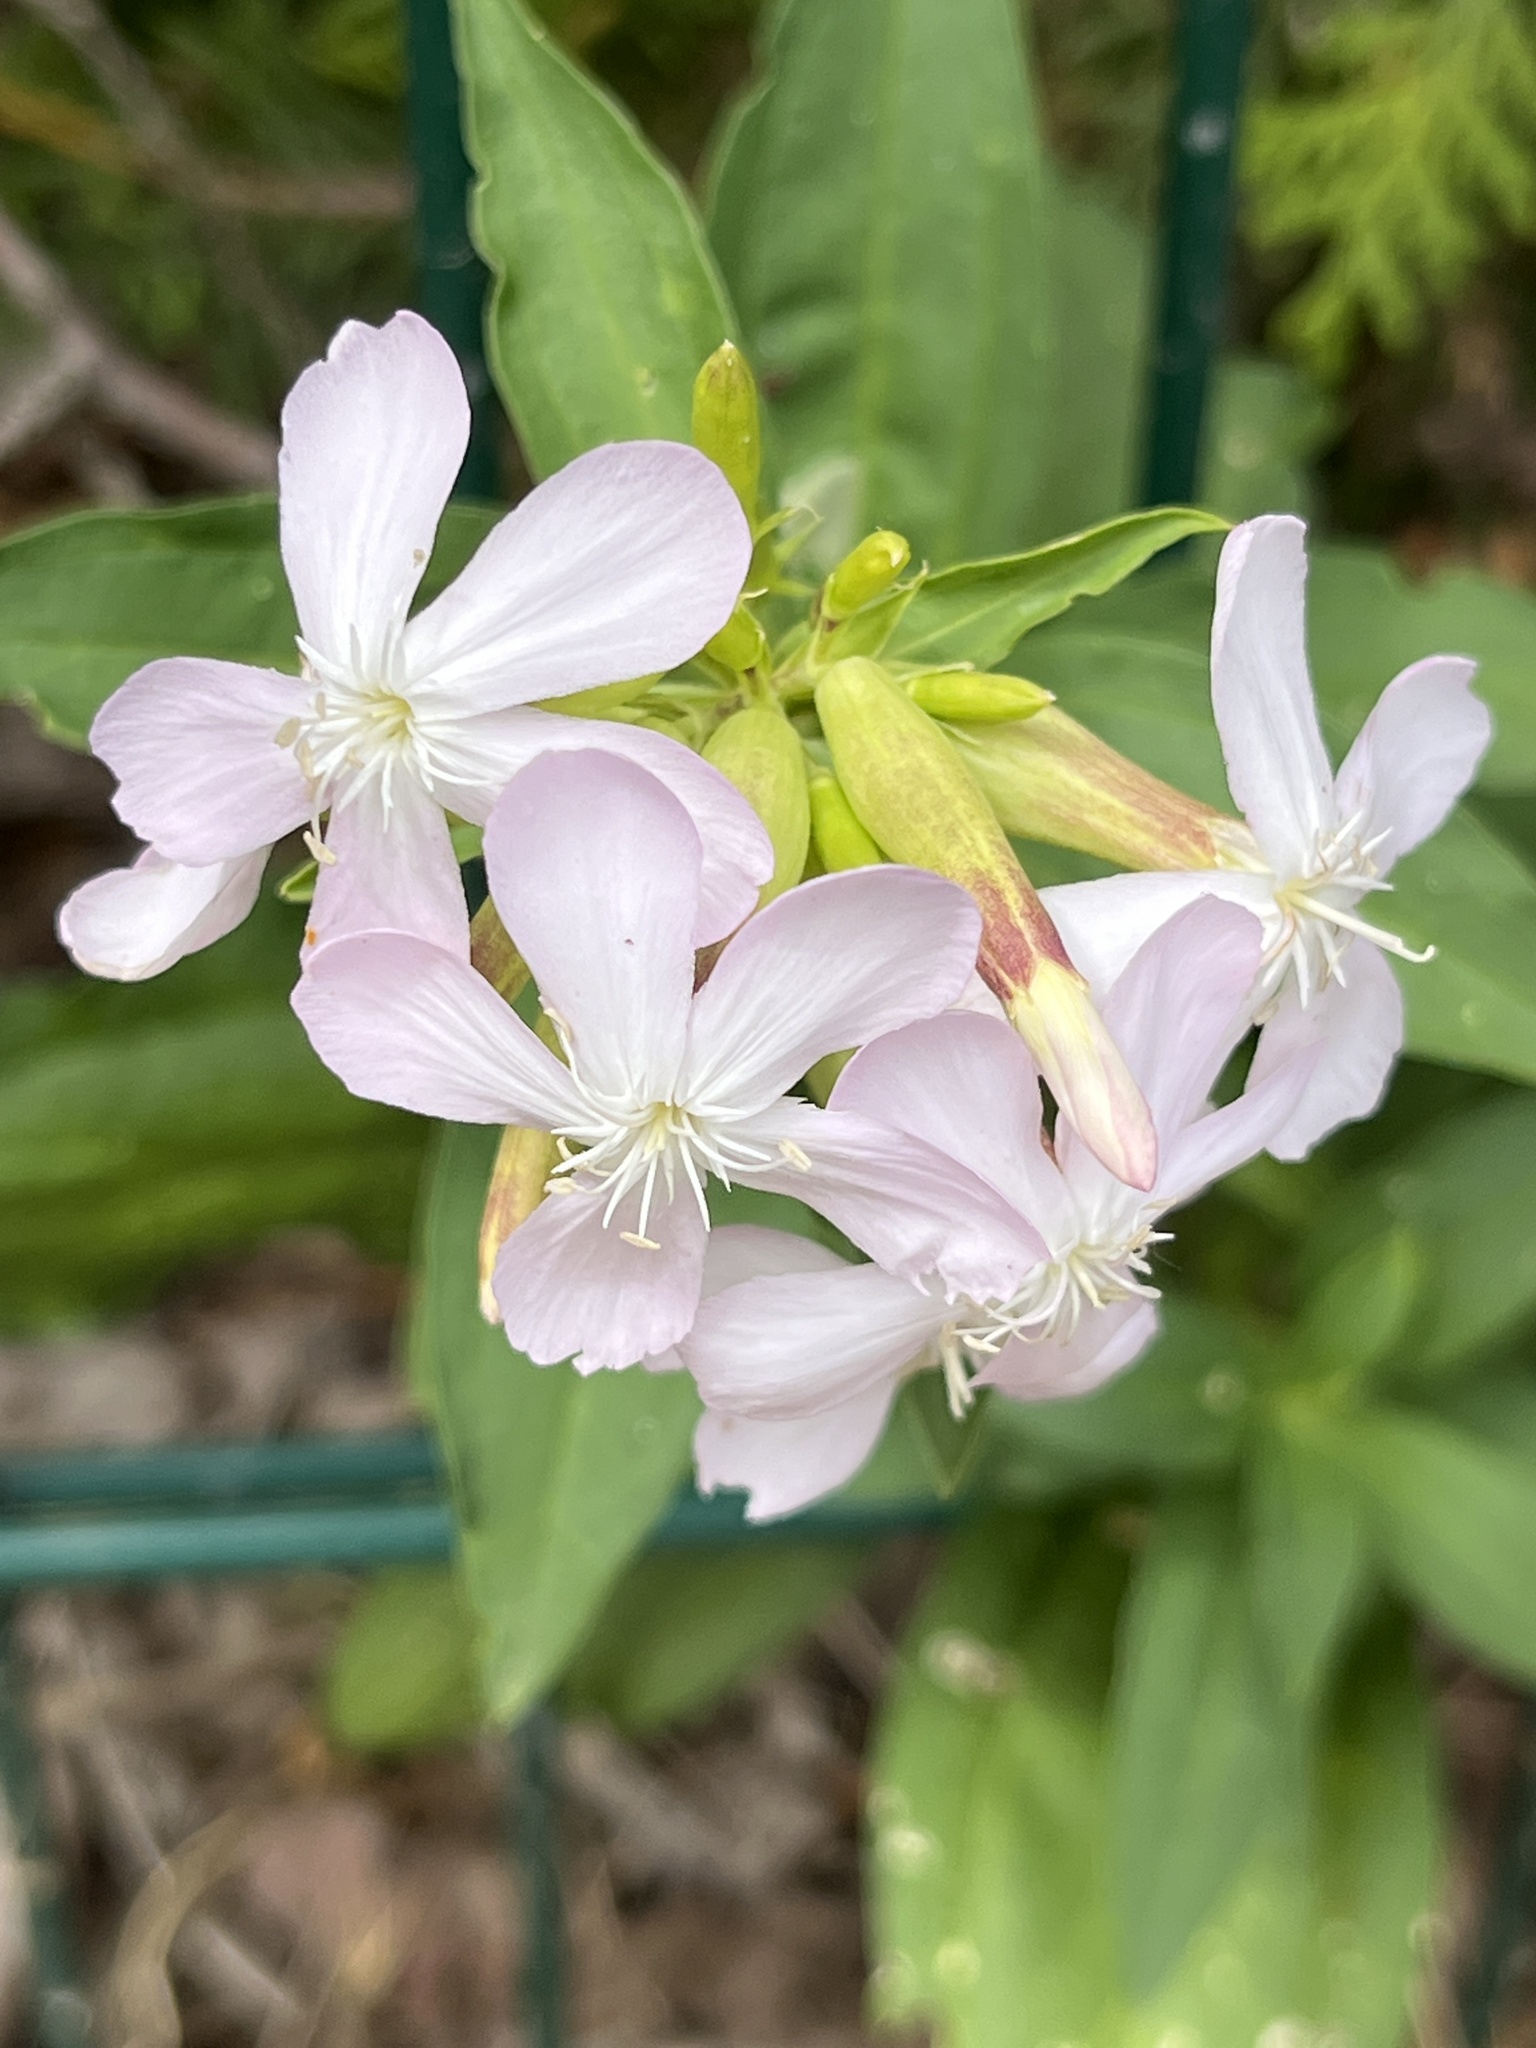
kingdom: Plantae
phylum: Tracheophyta
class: Magnoliopsida
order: Caryophyllales
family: Caryophyllaceae
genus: Saponaria
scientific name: Saponaria officinalis
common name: Soapwort
